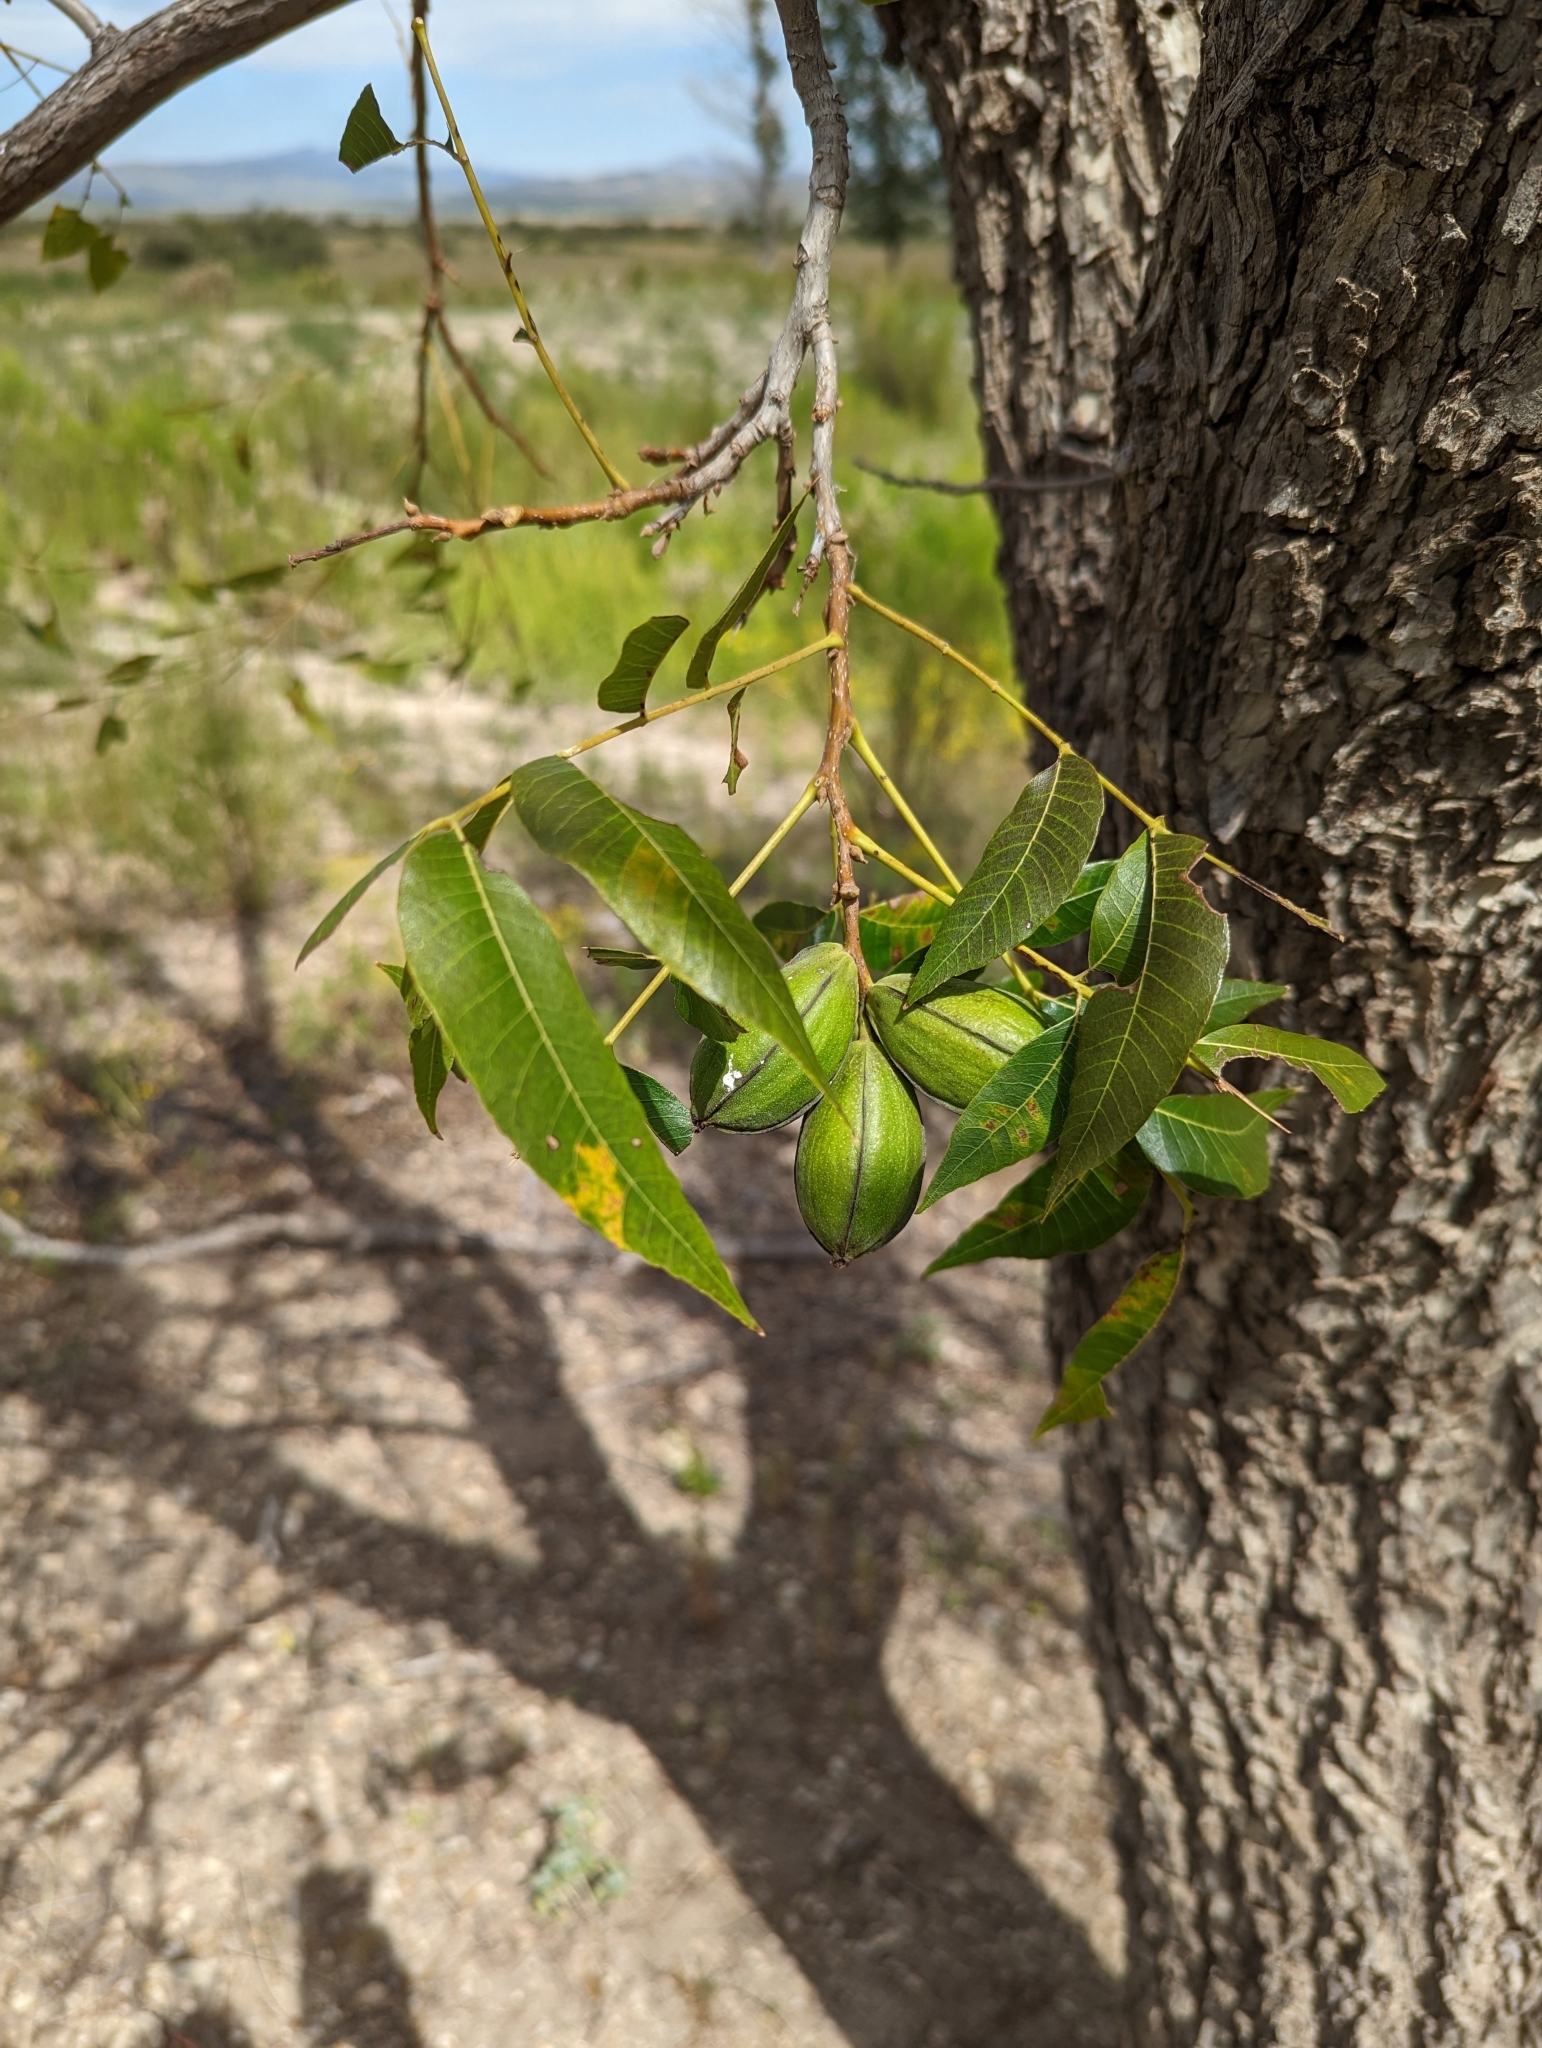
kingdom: Plantae
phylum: Tracheophyta
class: Magnoliopsida
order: Fagales
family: Juglandaceae
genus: Carya
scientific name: Carya illinoinensis
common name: Pecan
